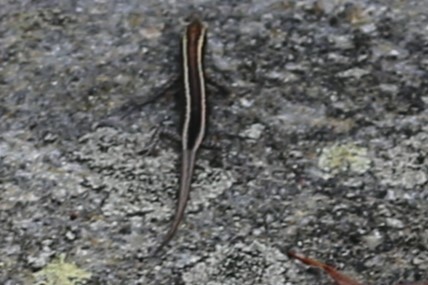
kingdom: Animalia
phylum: Chordata
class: Squamata
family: Scincidae
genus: Cryptoblepharus
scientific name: Cryptoblepharus pulcher
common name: Elegant snake-eyed skink
